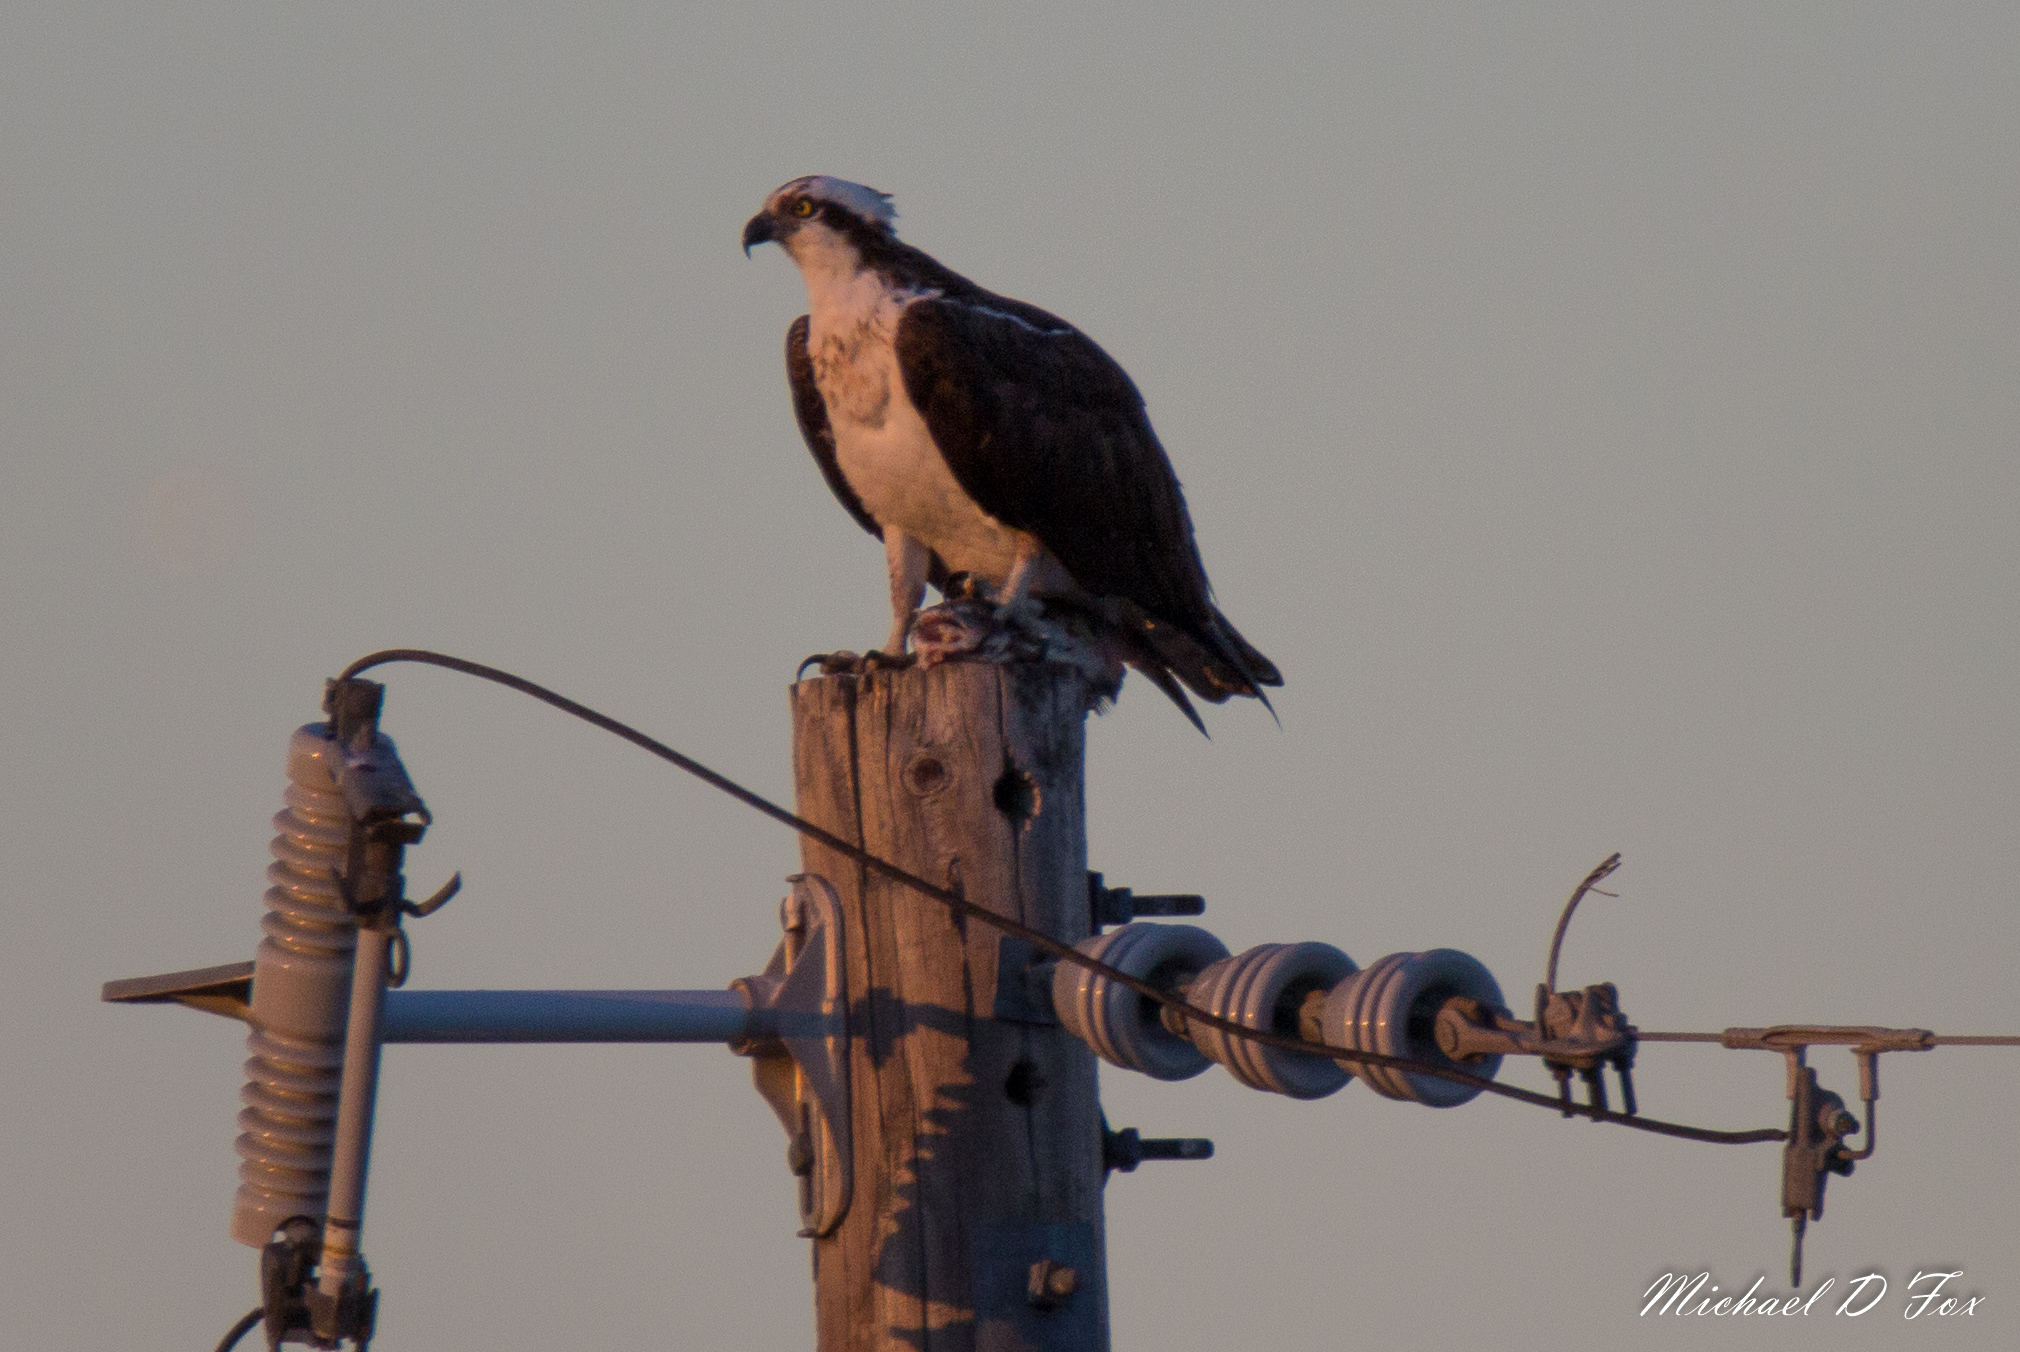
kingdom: Animalia
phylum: Chordata
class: Aves
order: Accipitriformes
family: Pandionidae
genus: Pandion
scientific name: Pandion haliaetus
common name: Osprey
